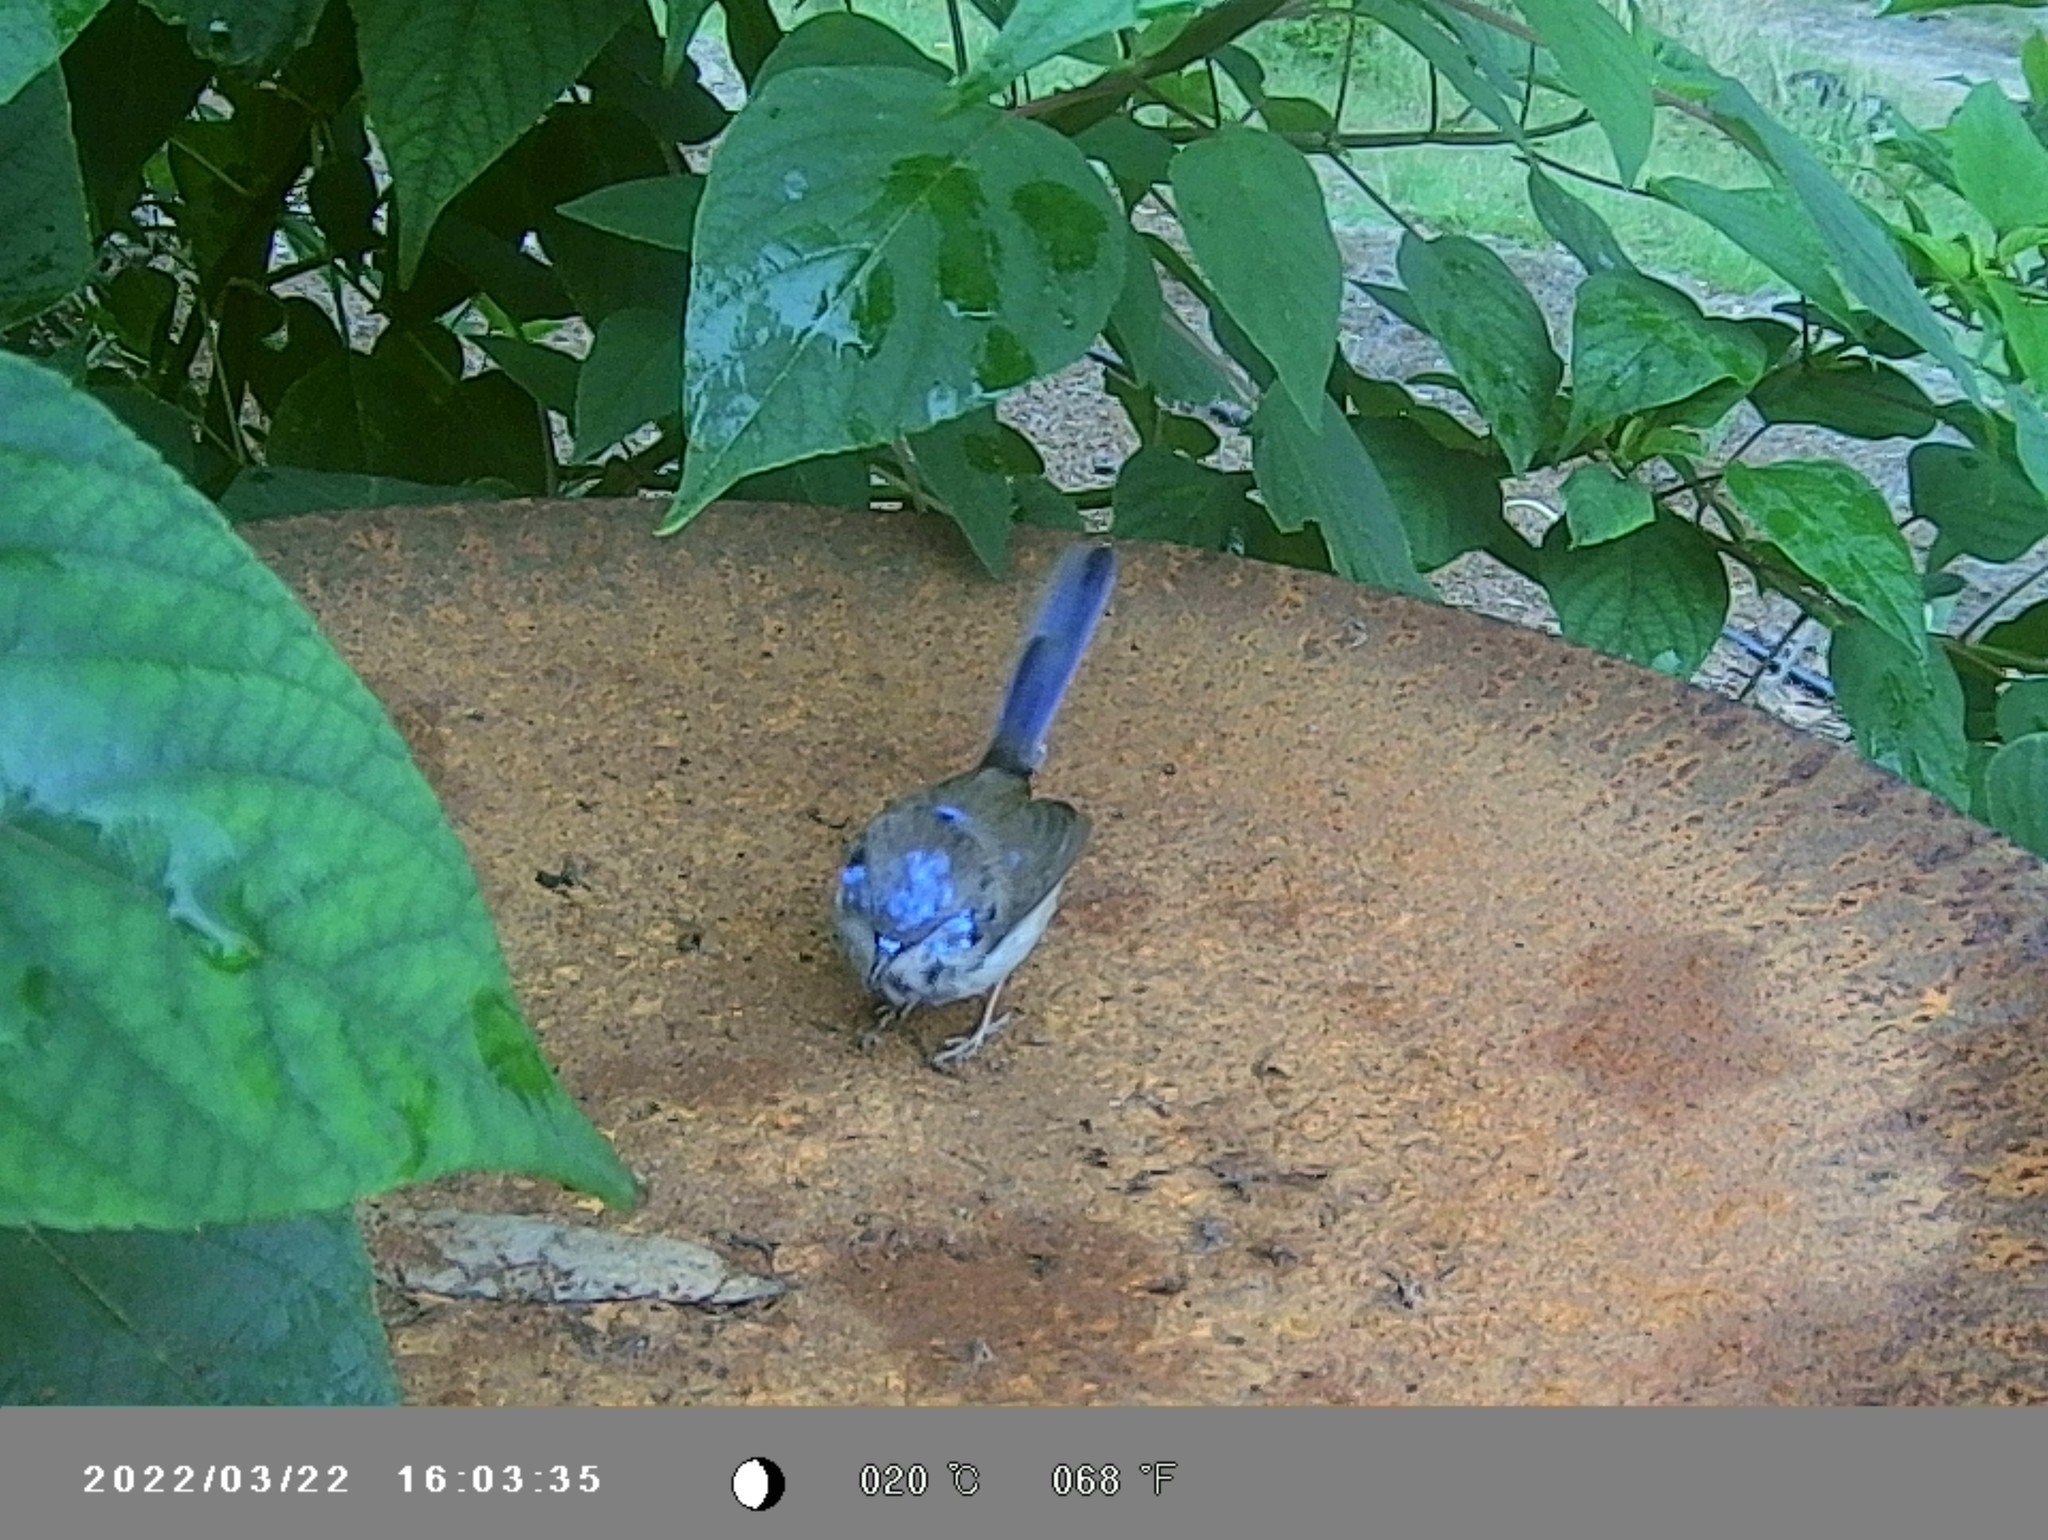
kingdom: Animalia
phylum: Chordata
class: Aves
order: Passeriformes
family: Maluridae
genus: Malurus
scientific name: Malurus cyaneus
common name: Superb fairywren
